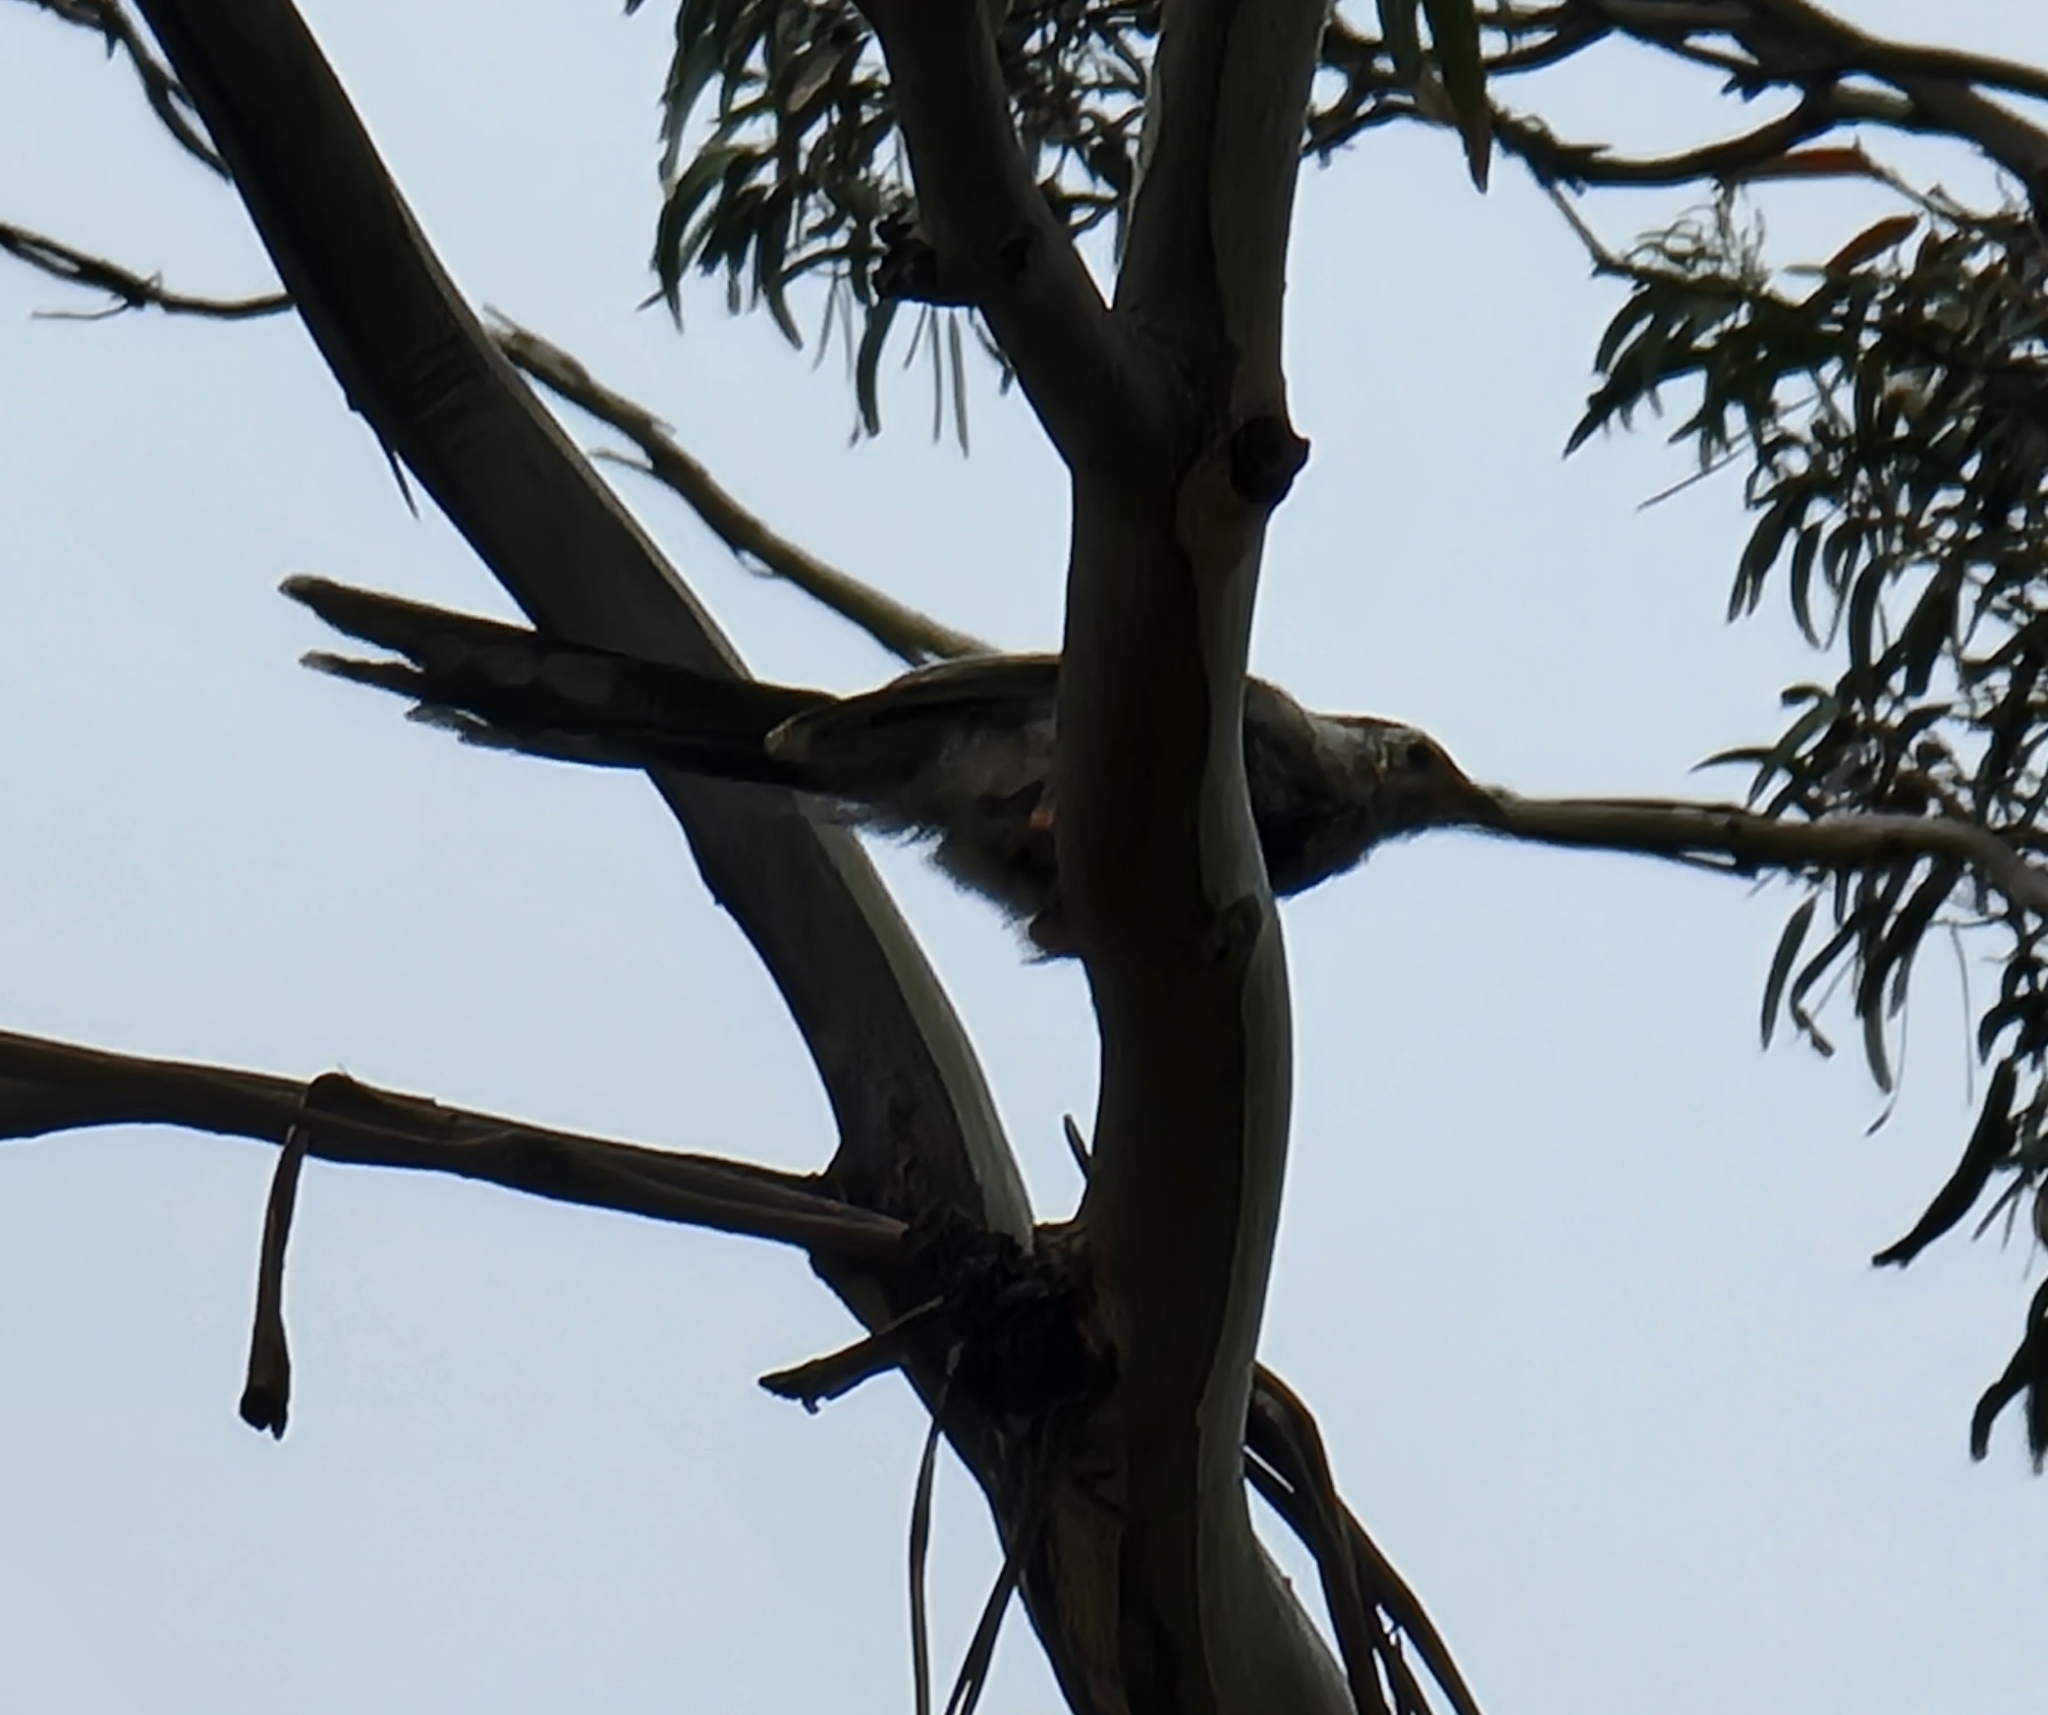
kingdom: Animalia
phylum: Chordata
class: Aves
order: Passeriformes
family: Meliphagidae
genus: Anthochaera
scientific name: Anthochaera paradoxa
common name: Yellow wattlebird
